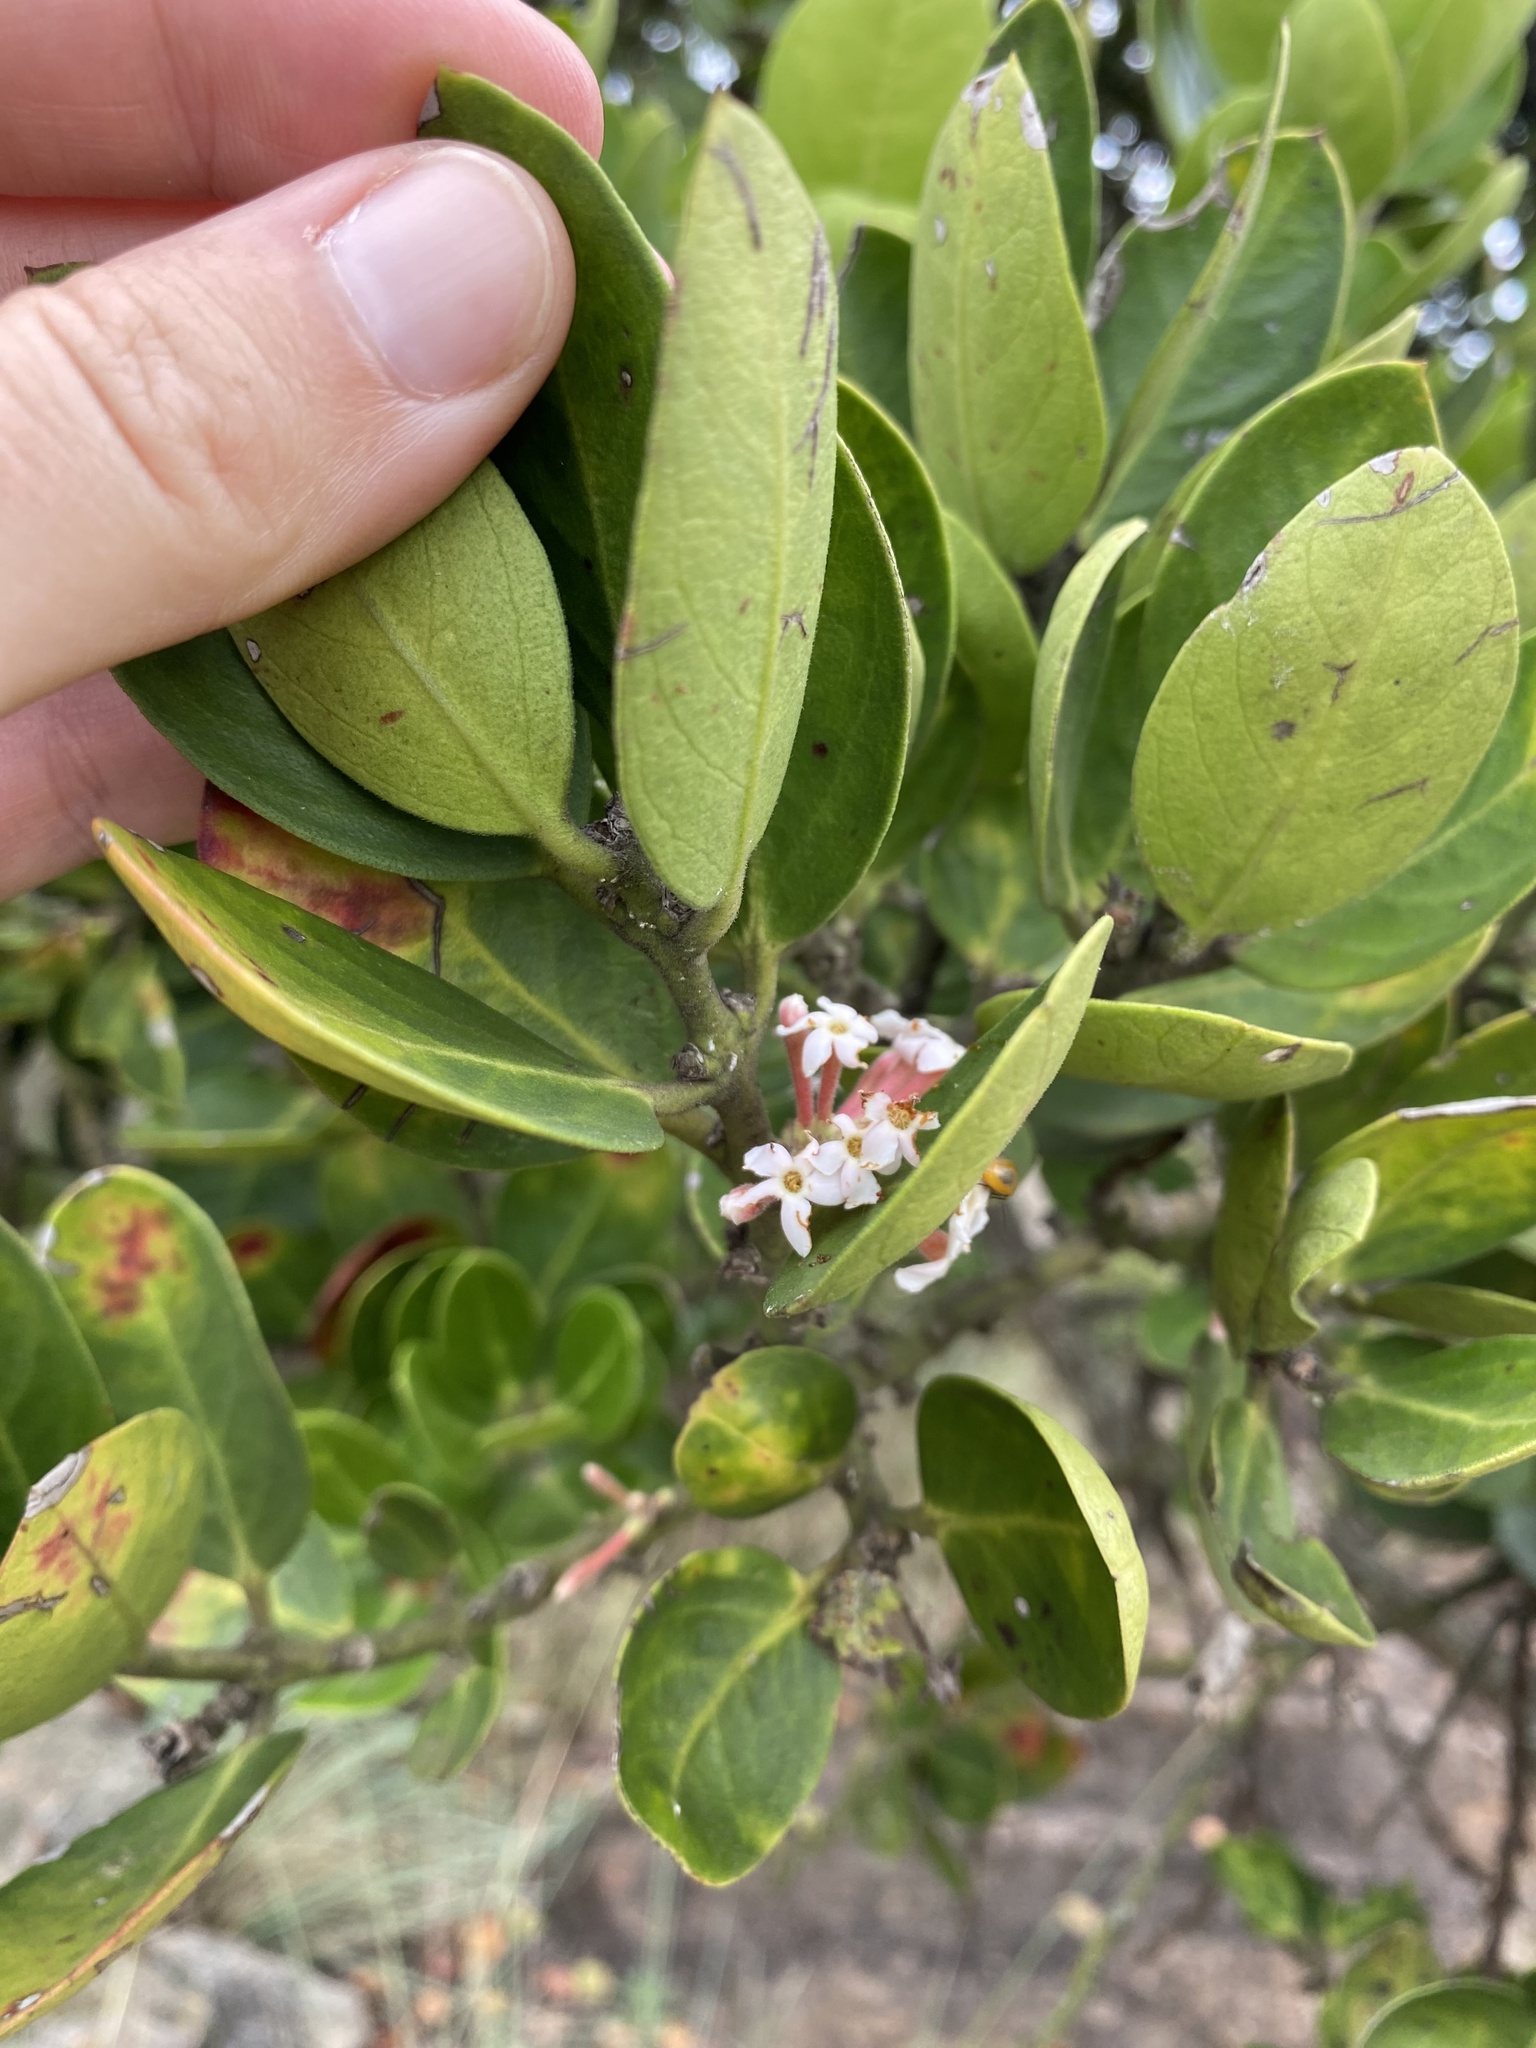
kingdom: Plantae
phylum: Tracheophyta
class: Magnoliopsida
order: Gentianales
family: Apocynaceae
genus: Acokanthera
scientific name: Acokanthera rotundata
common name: Round-leaved poison-bush
